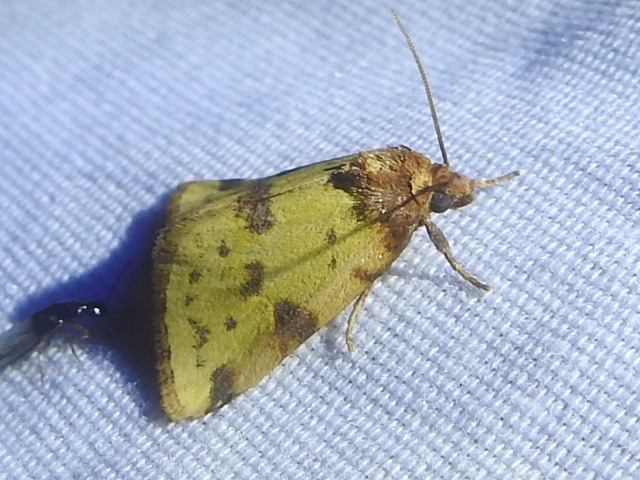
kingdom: Animalia
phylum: Arthropoda
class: Insecta
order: Lepidoptera
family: Noctuidae
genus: Azenia
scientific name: Azenia obtusa
